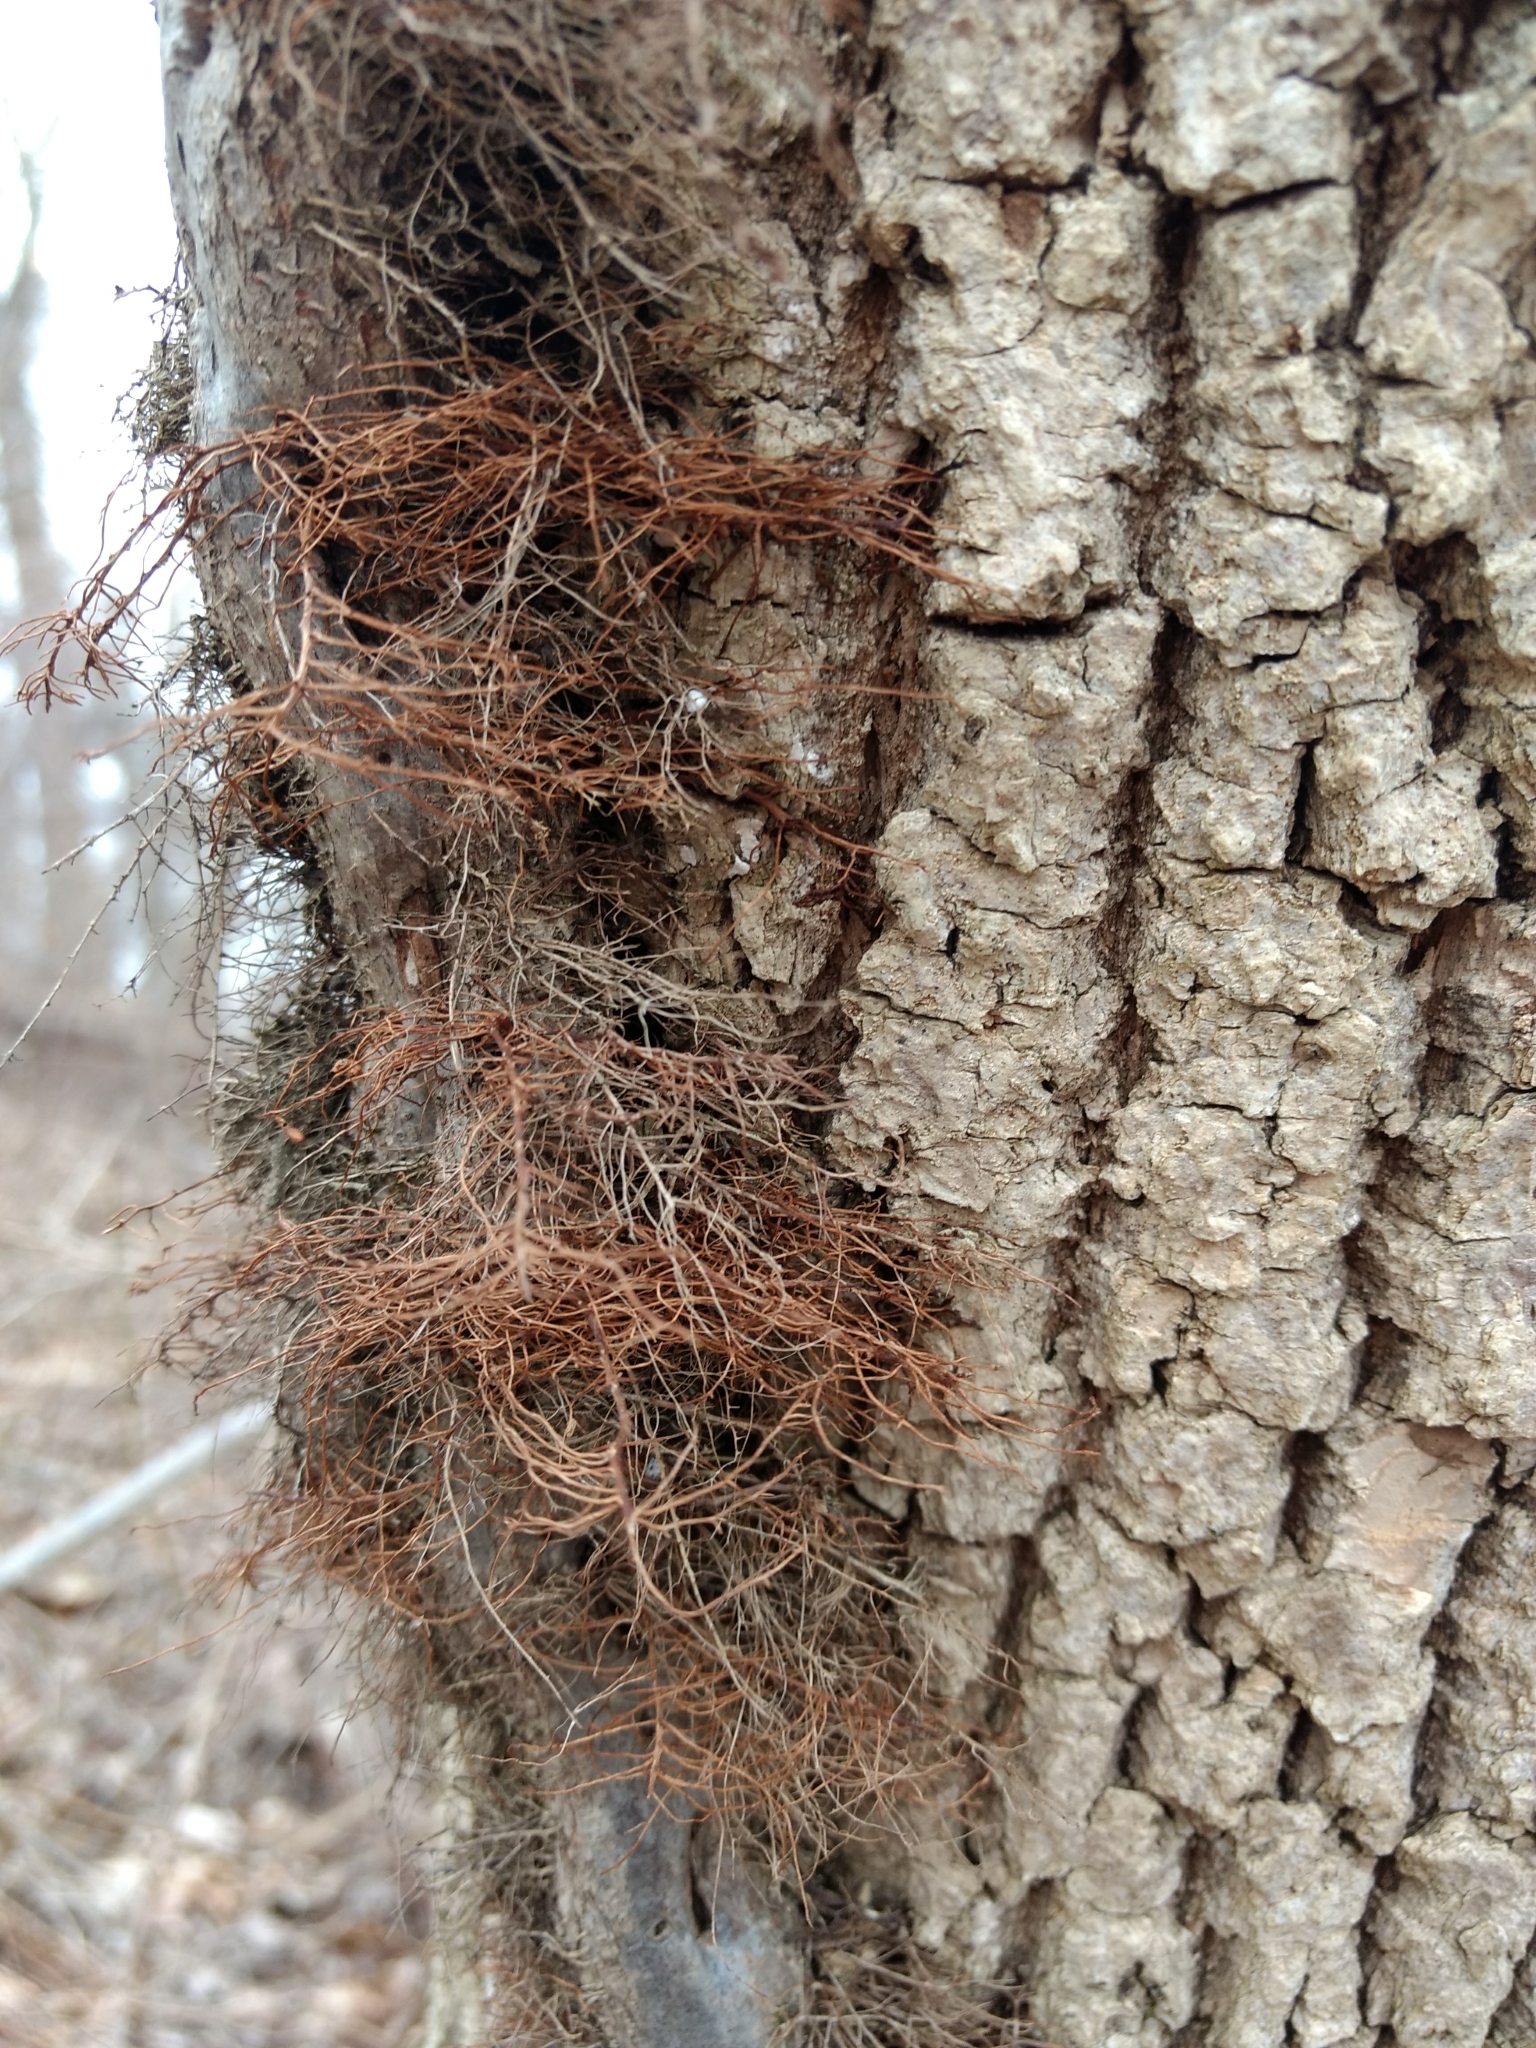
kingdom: Plantae
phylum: Tracheophyta
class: Magnoliopsida
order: Sapindales
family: Anacardiaceae
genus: Toxicodendron
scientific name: Toxicodendron radicans
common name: Poison ivy
